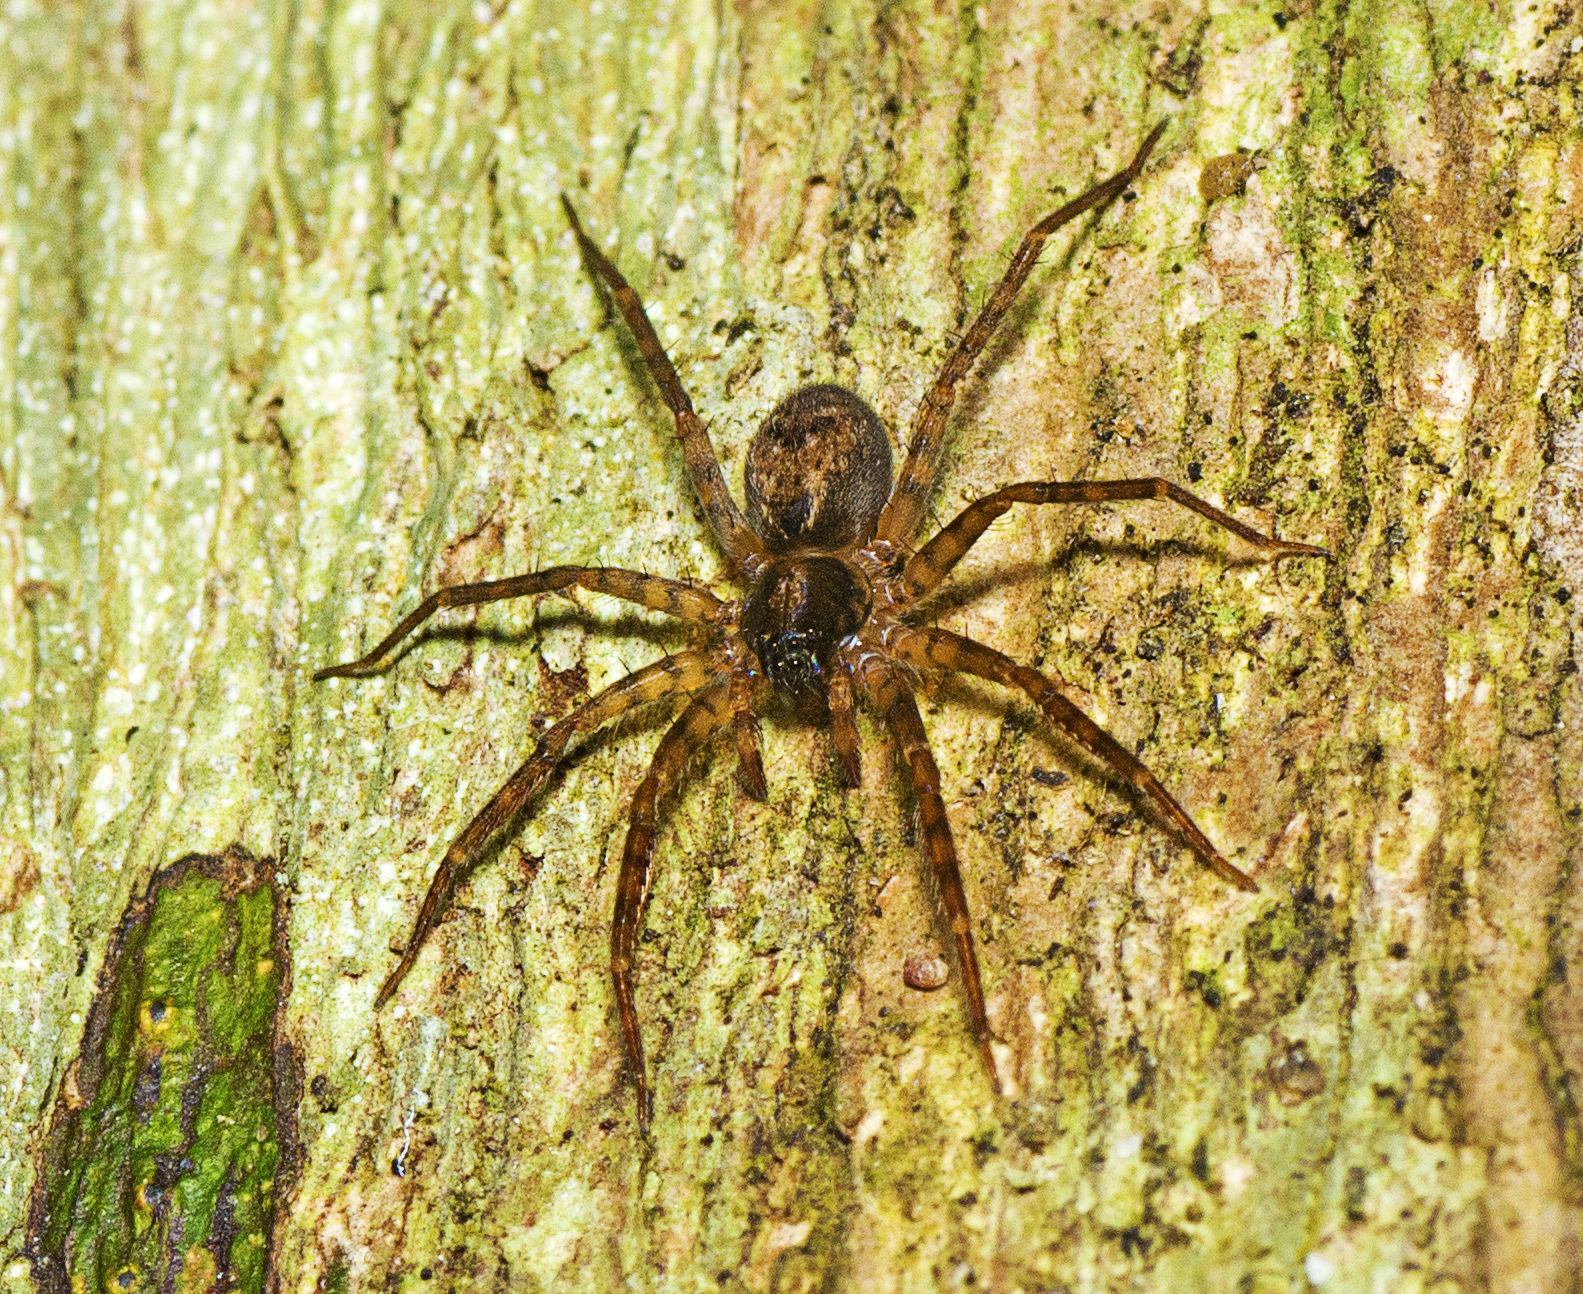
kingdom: Animalia
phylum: Arthropoda
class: Arachnida
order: Araneae
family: Toxopidae
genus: Toxopsoides
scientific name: Toxopsoides erici
